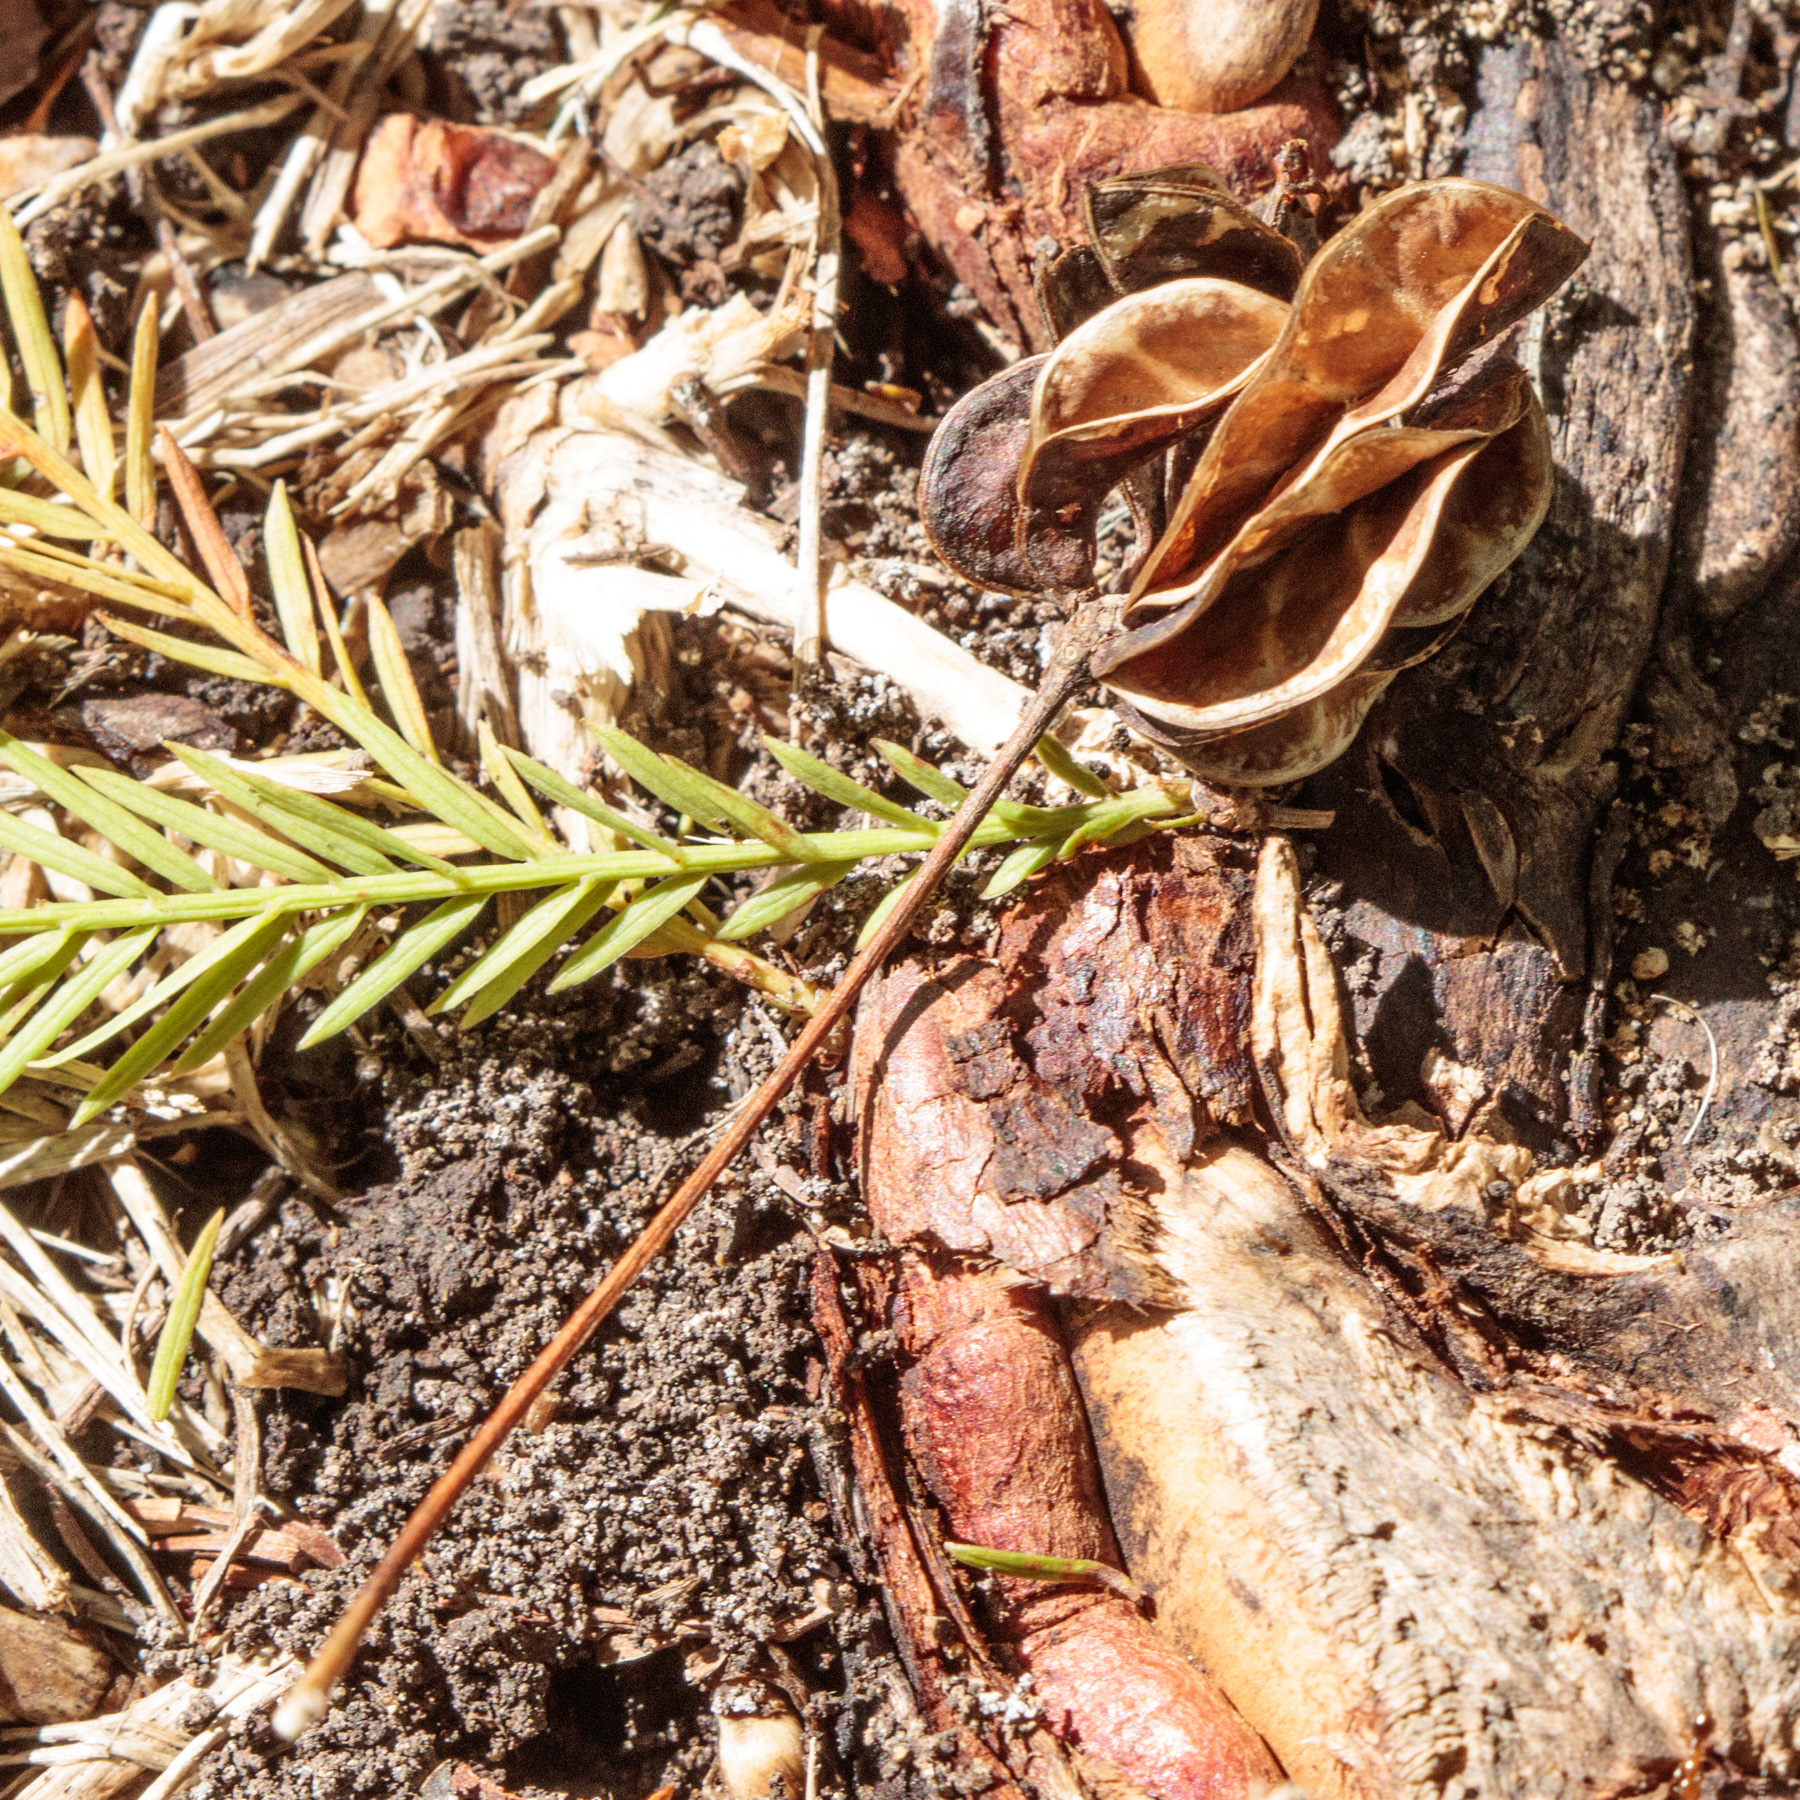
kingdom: Plantae
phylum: Tracheophyta
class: Magnoliopsida
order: Fabales
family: Fabaceae
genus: Desmanthus
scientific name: Desmanthus illinoensis
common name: Illinois bundle-flower
